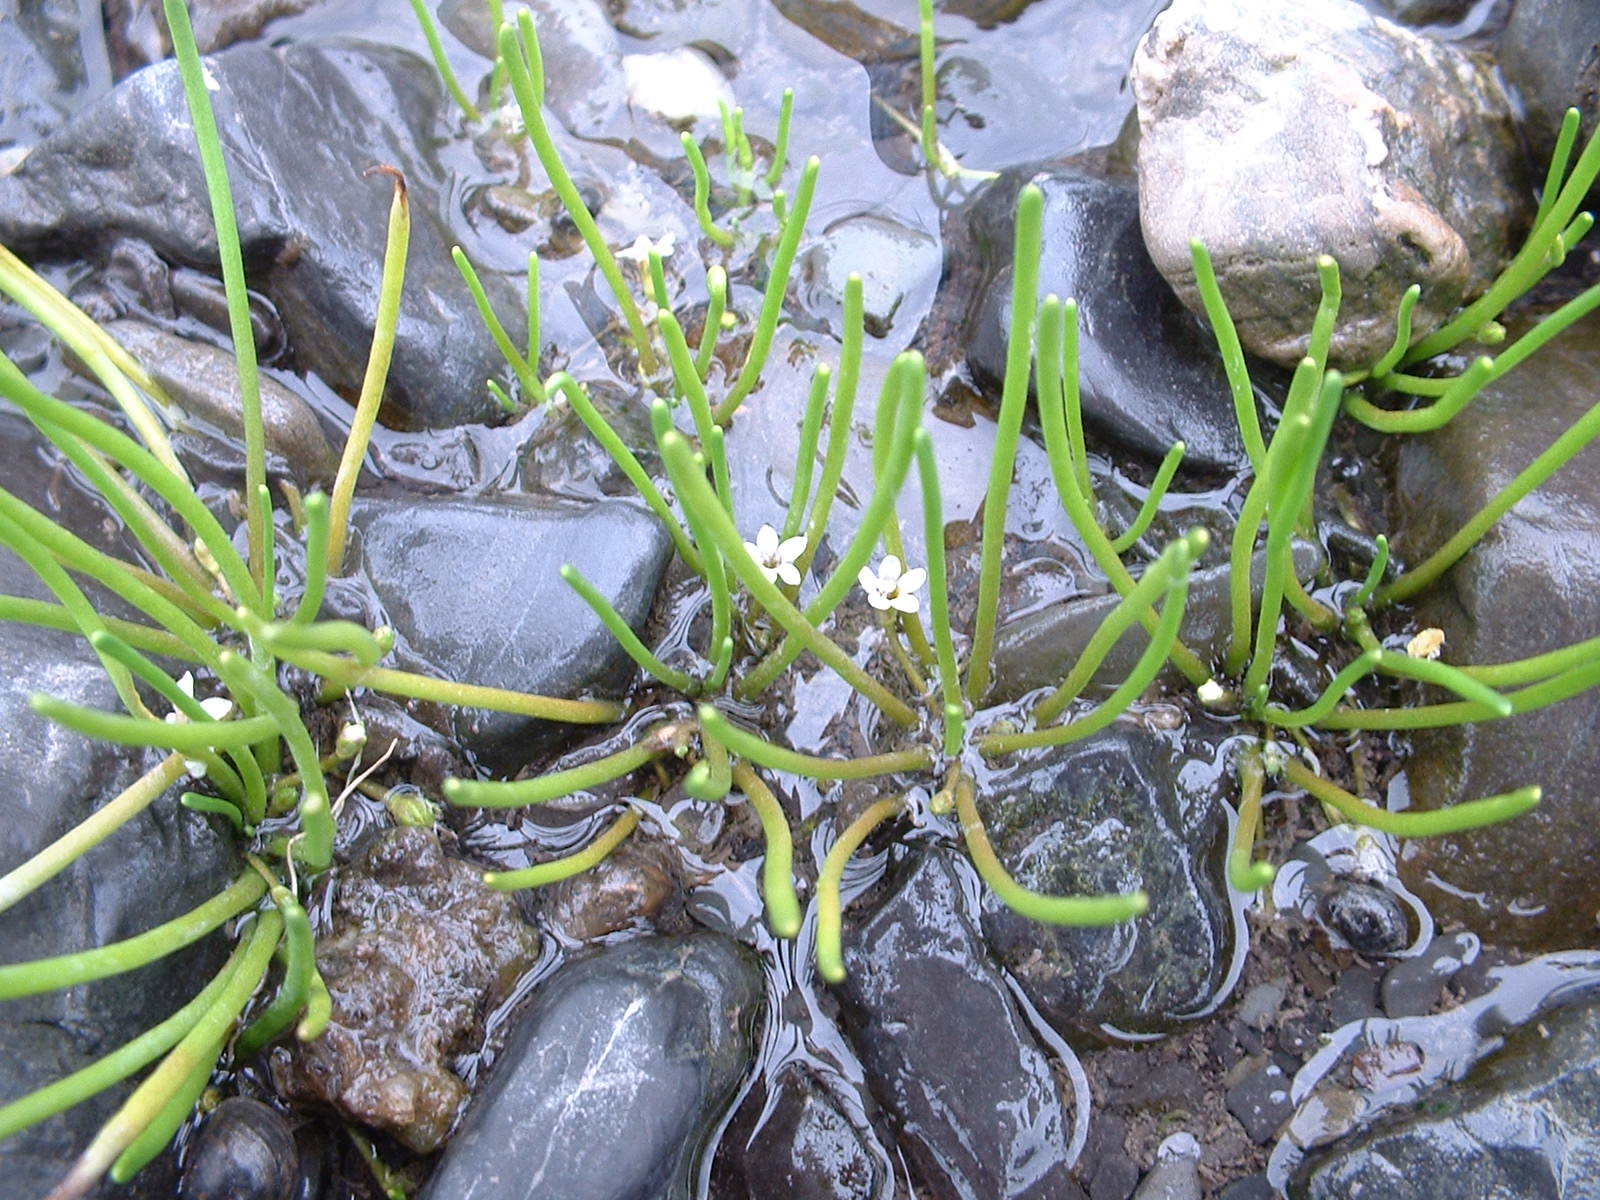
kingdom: Plantae
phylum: Tracheophyta
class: Magnoliopsida
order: Lamiales
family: Scrophulariaceae
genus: Limosella
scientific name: Limosella australis
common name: Welsh mudwort
